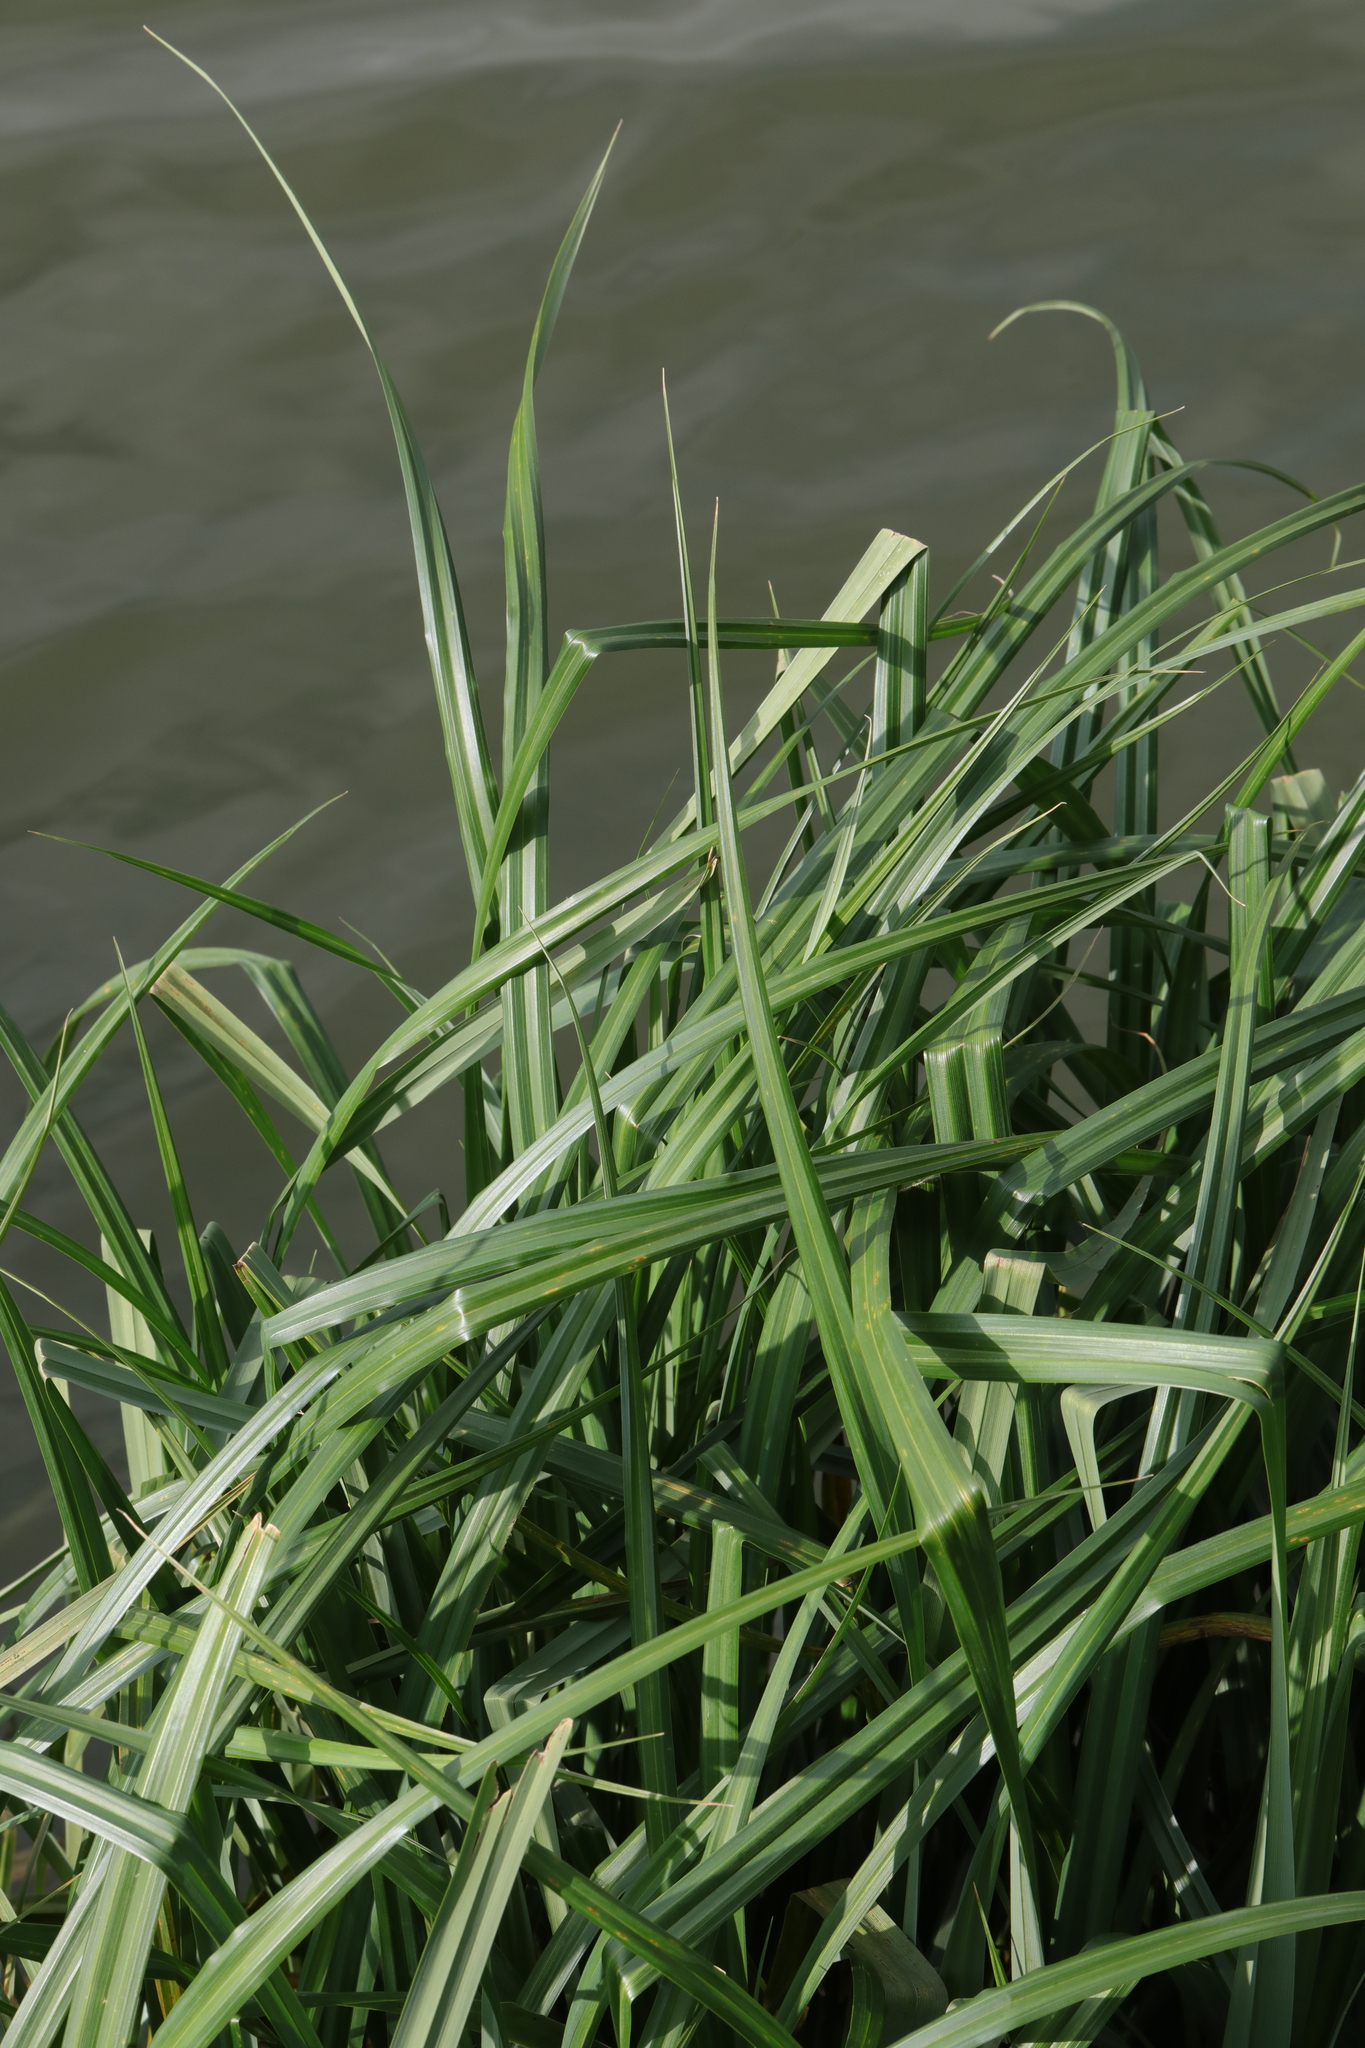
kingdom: Plantae
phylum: Tracheophyta
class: Liliopsida
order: Poales
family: Cyperaceae
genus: Carex
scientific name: Carex pendula
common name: Pendulous sedge
